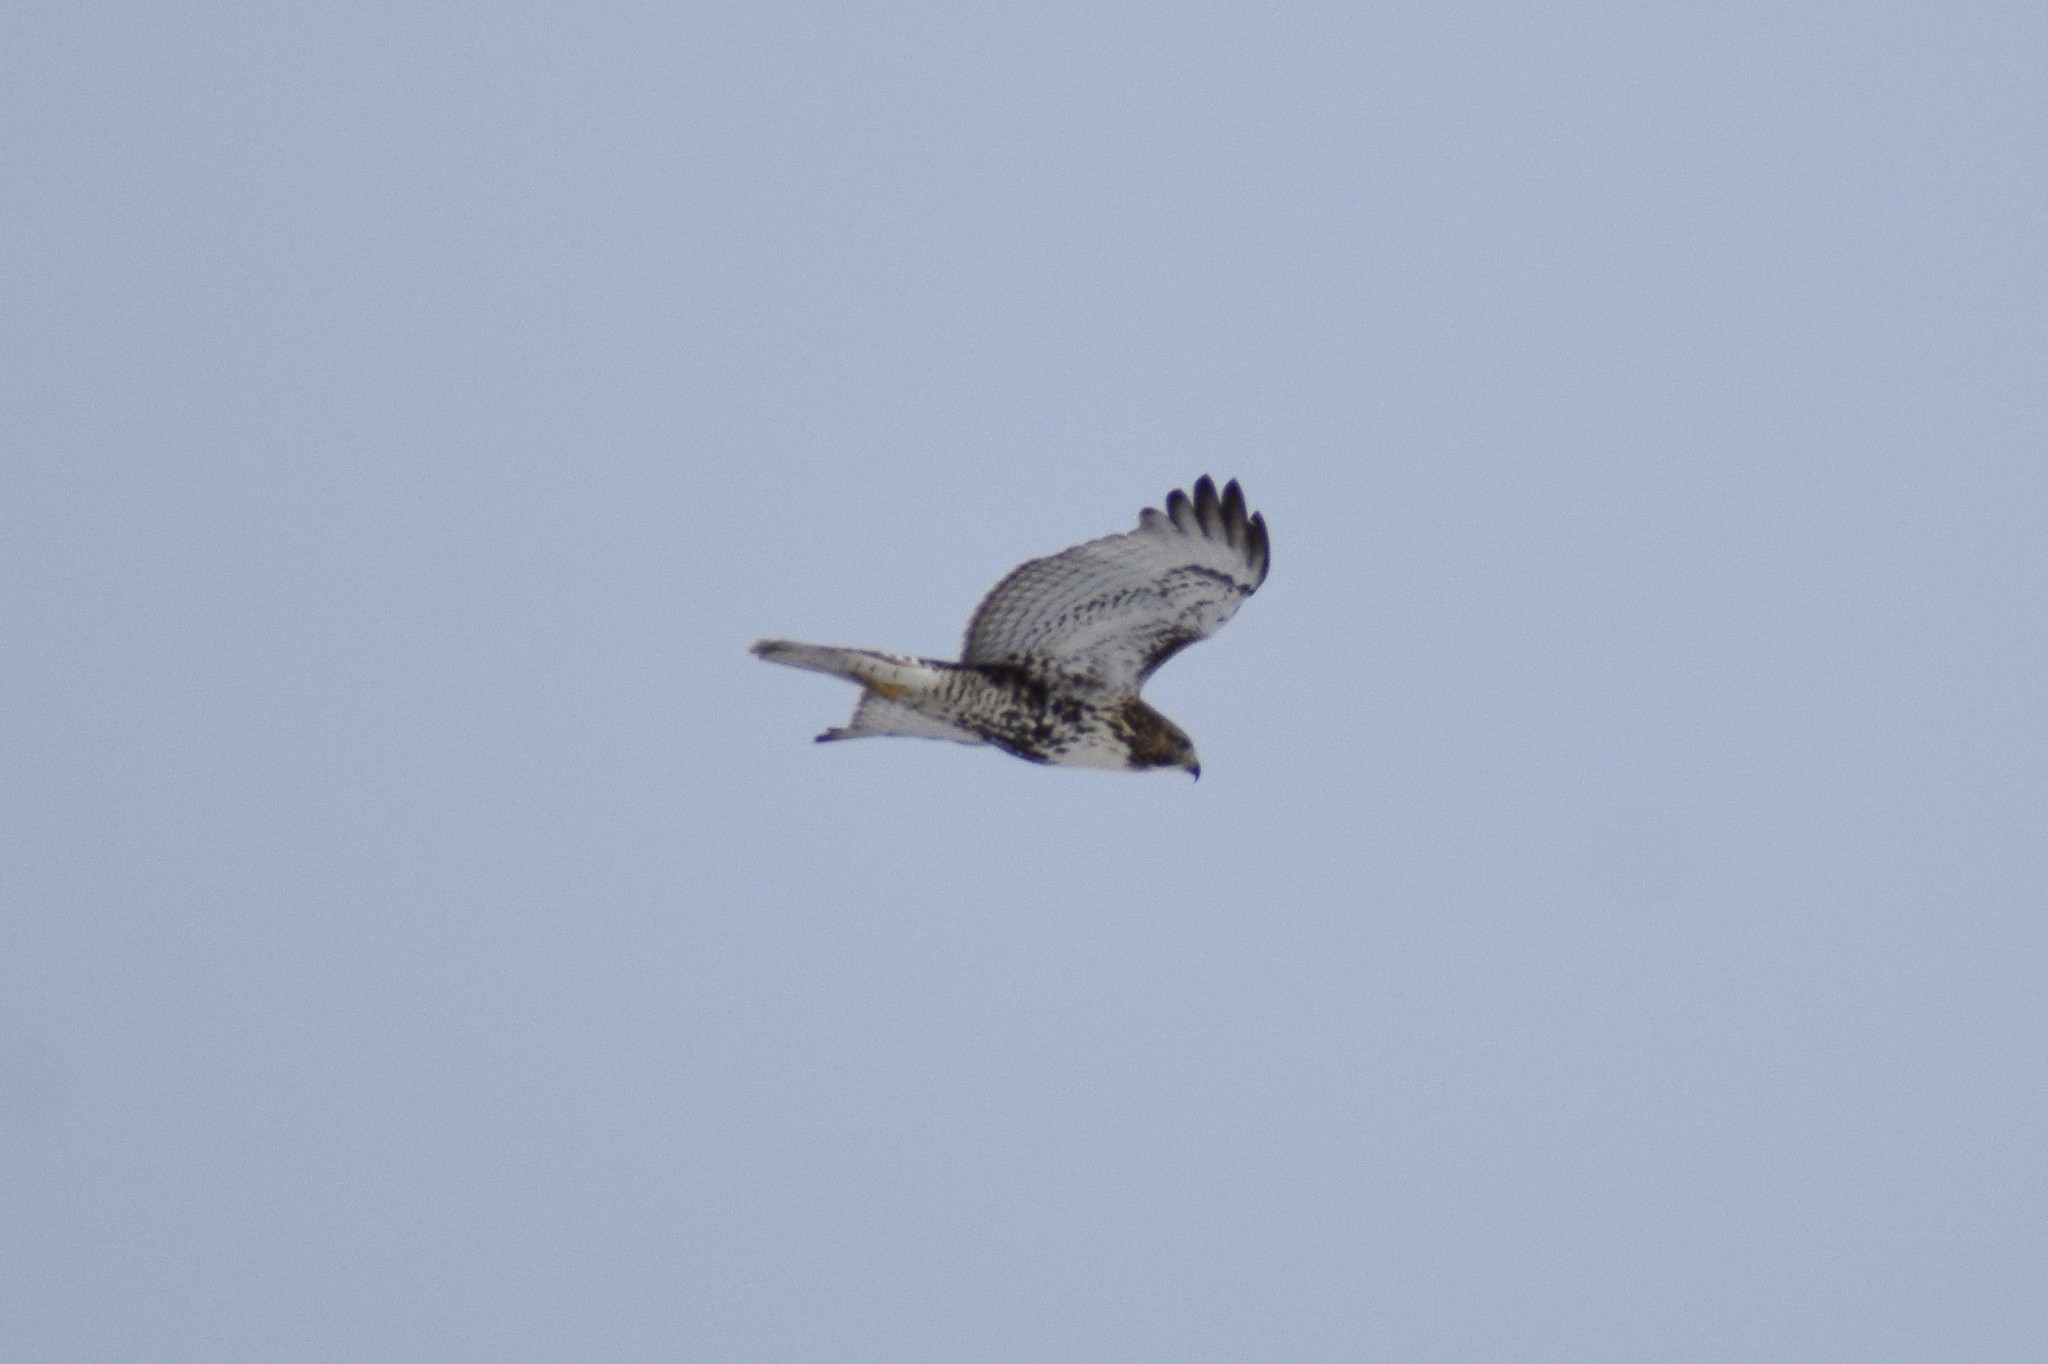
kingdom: Animalia
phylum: Chordata
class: Aves
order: Accipitriformes
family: Accipitridae
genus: Buteo
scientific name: Buteo jamaicensis
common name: Red-tailed hawk
